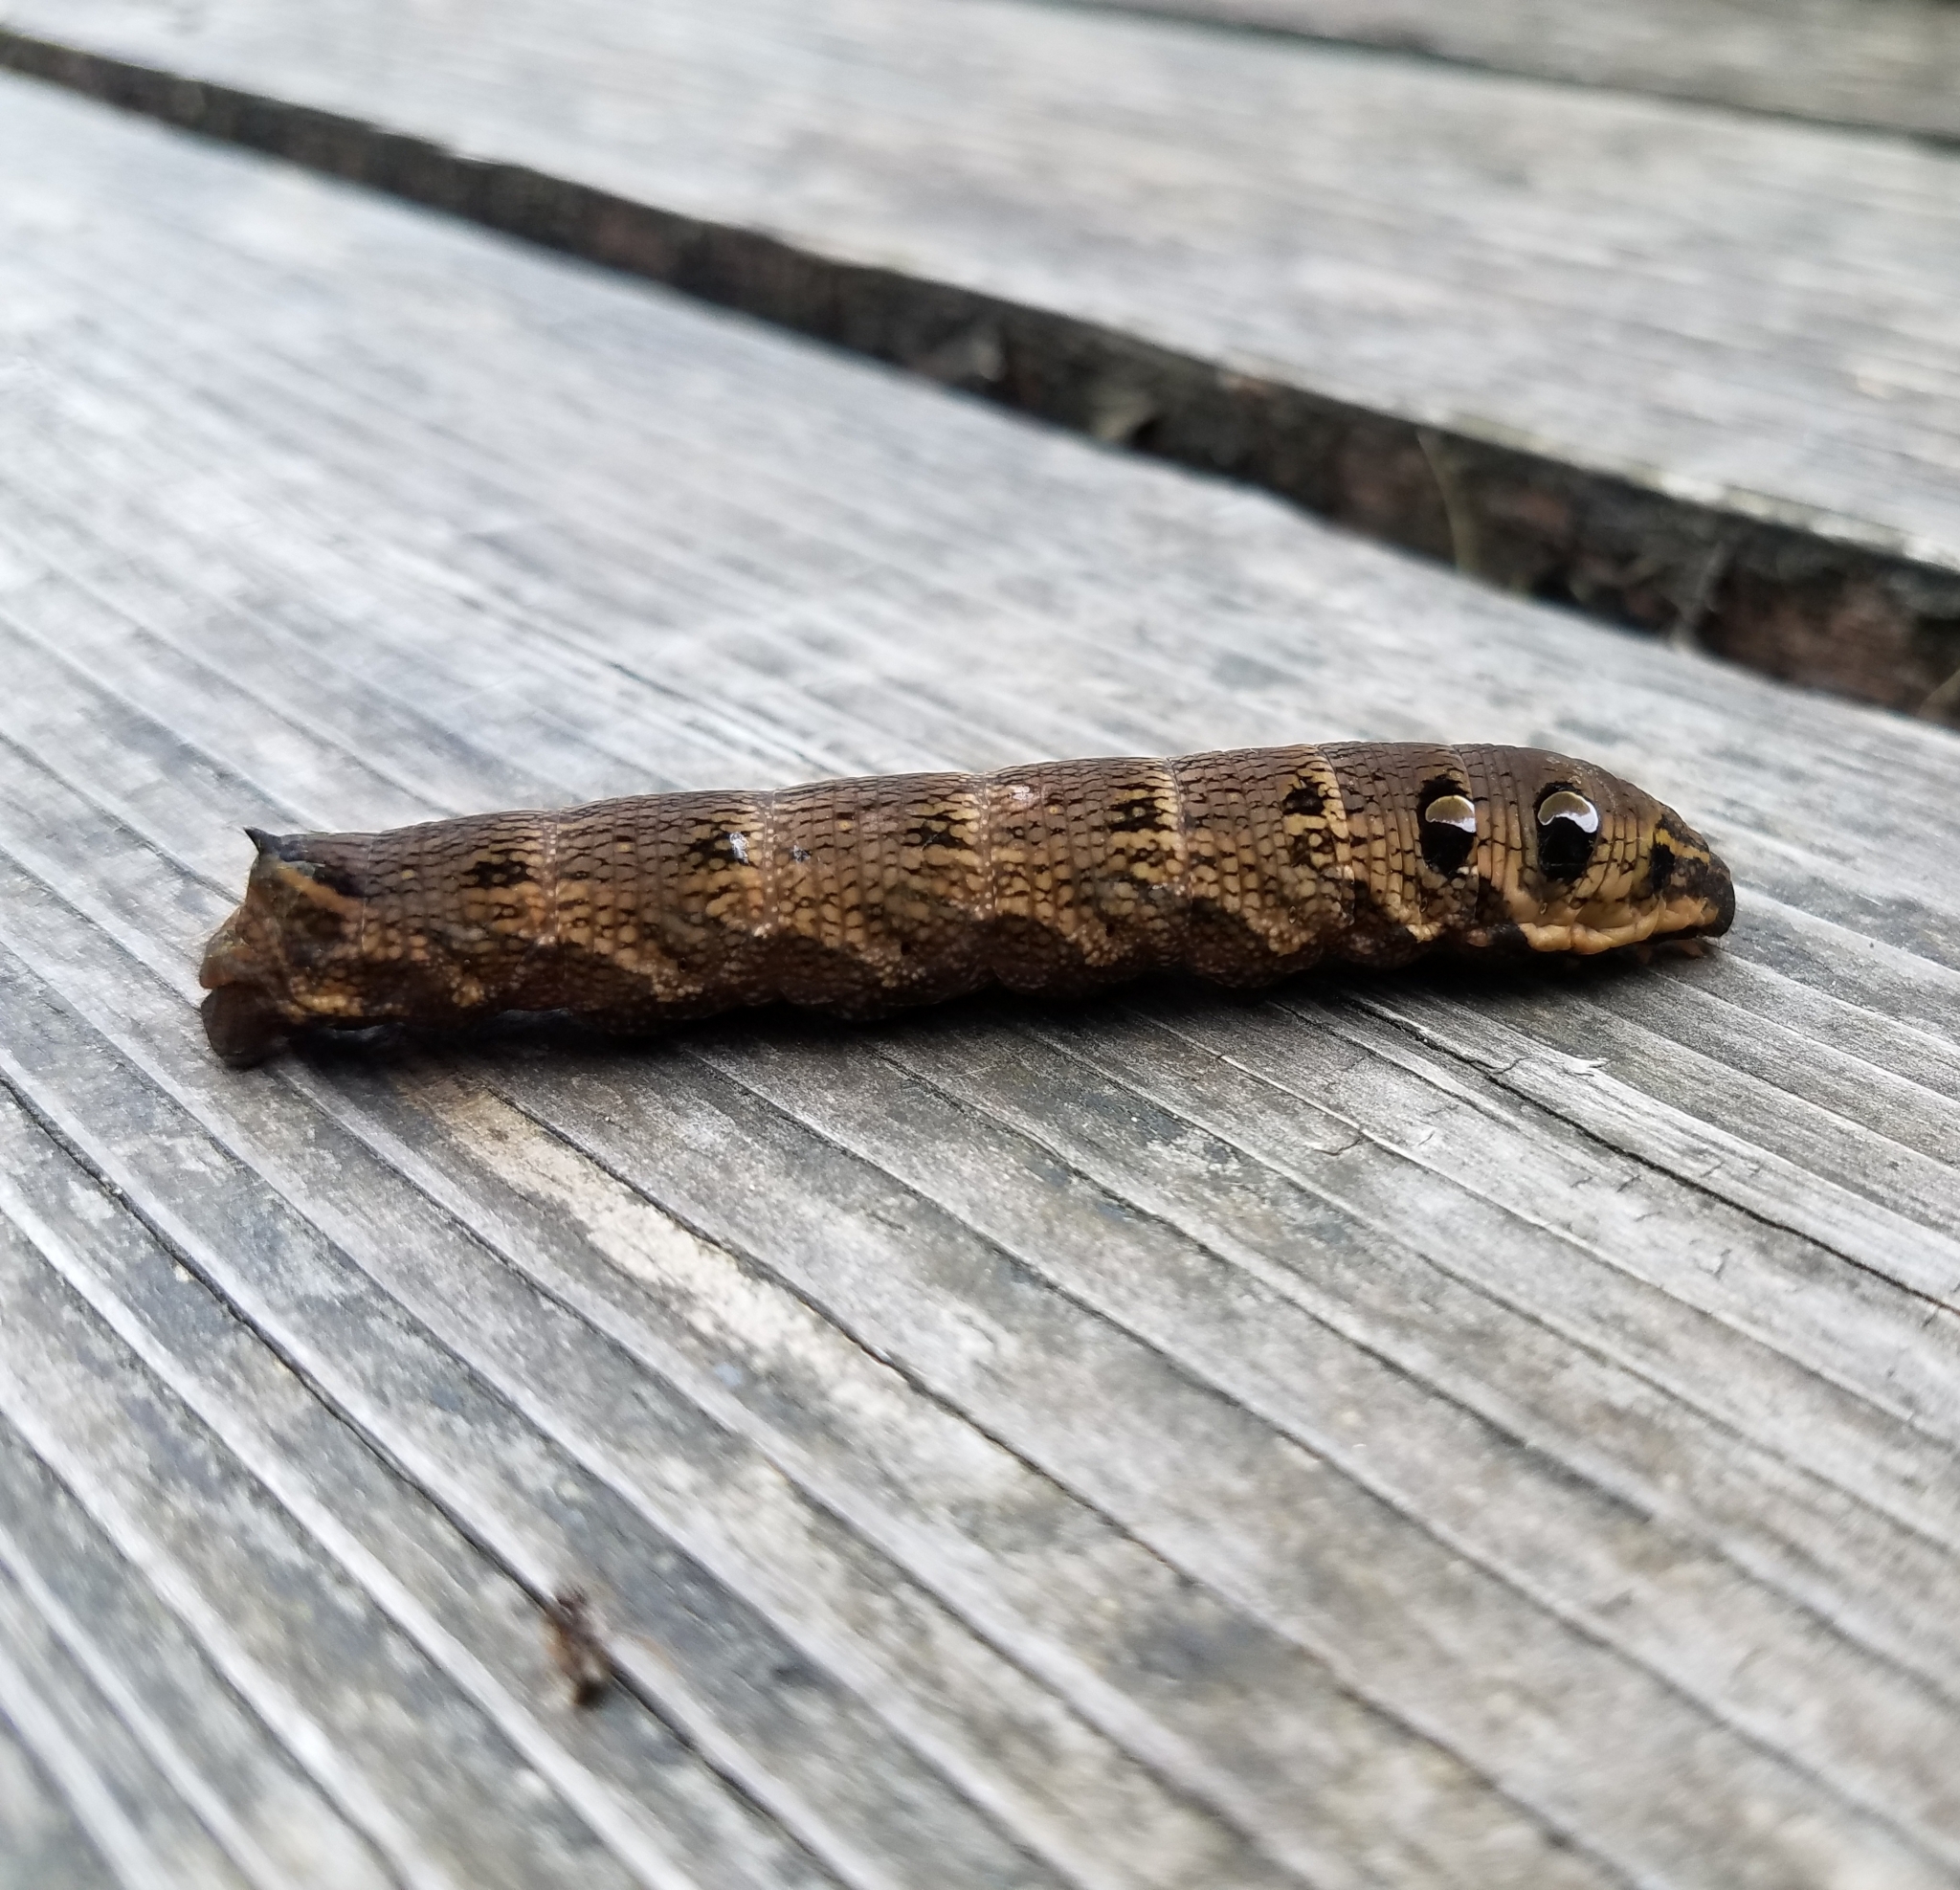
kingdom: Animalia
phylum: Arthropoda
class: Insecta
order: Lepidoptera
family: Sphingidae
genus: Deilephila
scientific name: Deilephila elpenor
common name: Elephant hawk-moth
